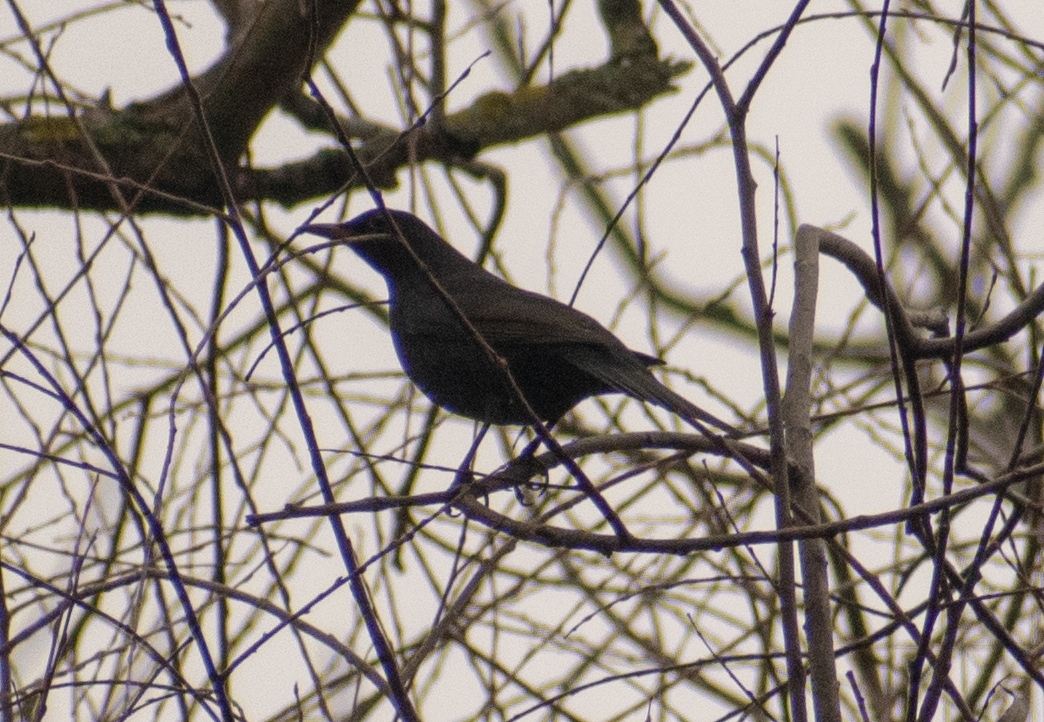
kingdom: Animalia
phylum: Chordata
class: Aves
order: Passeriformes
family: Turdidae
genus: Turdus
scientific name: Turdus merula
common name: Common blackbird
